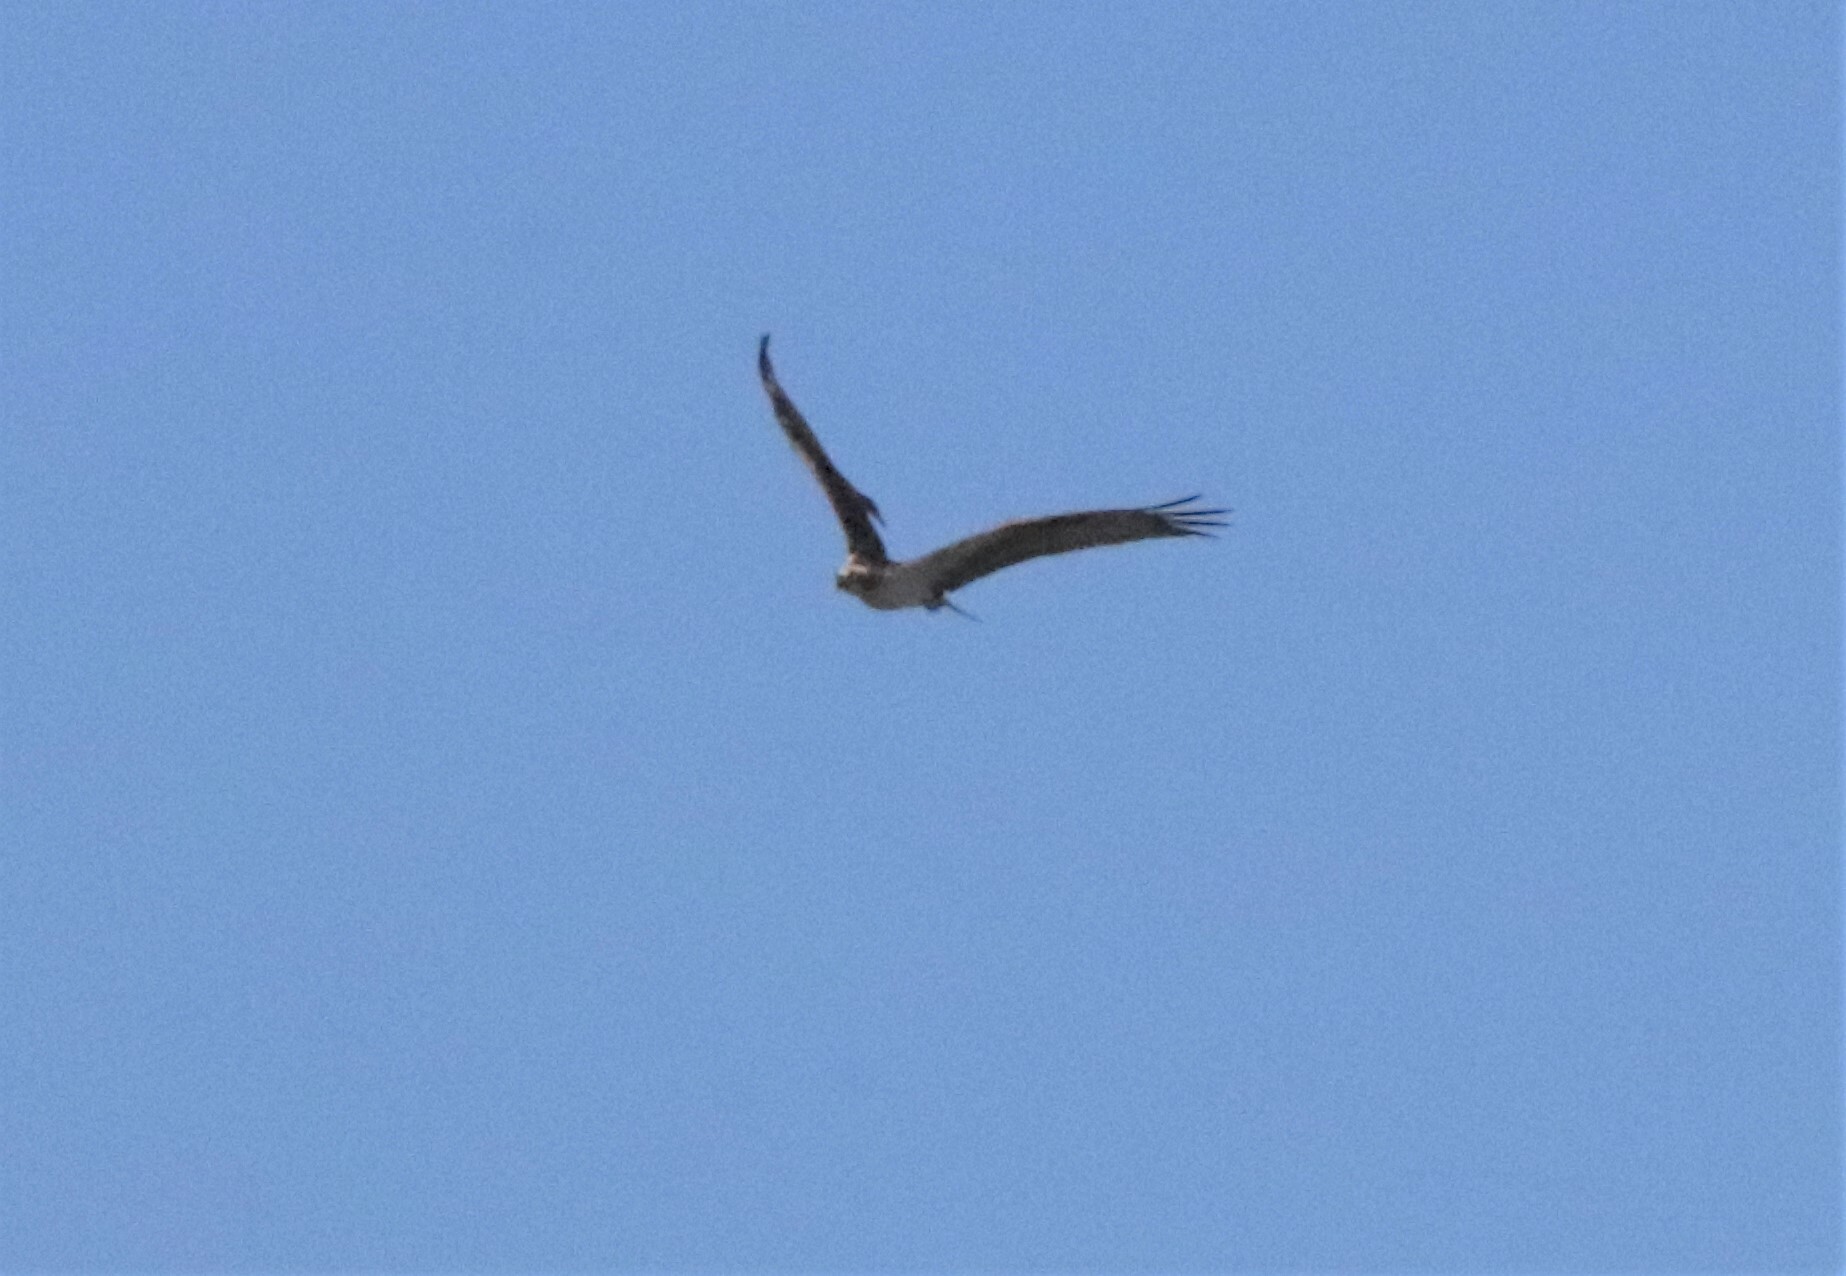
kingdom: Animalia
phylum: Chordata
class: Aves
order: Accipitriformes
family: Pandionidae
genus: Pandion
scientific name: Pandion haliaetus
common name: Osprey
